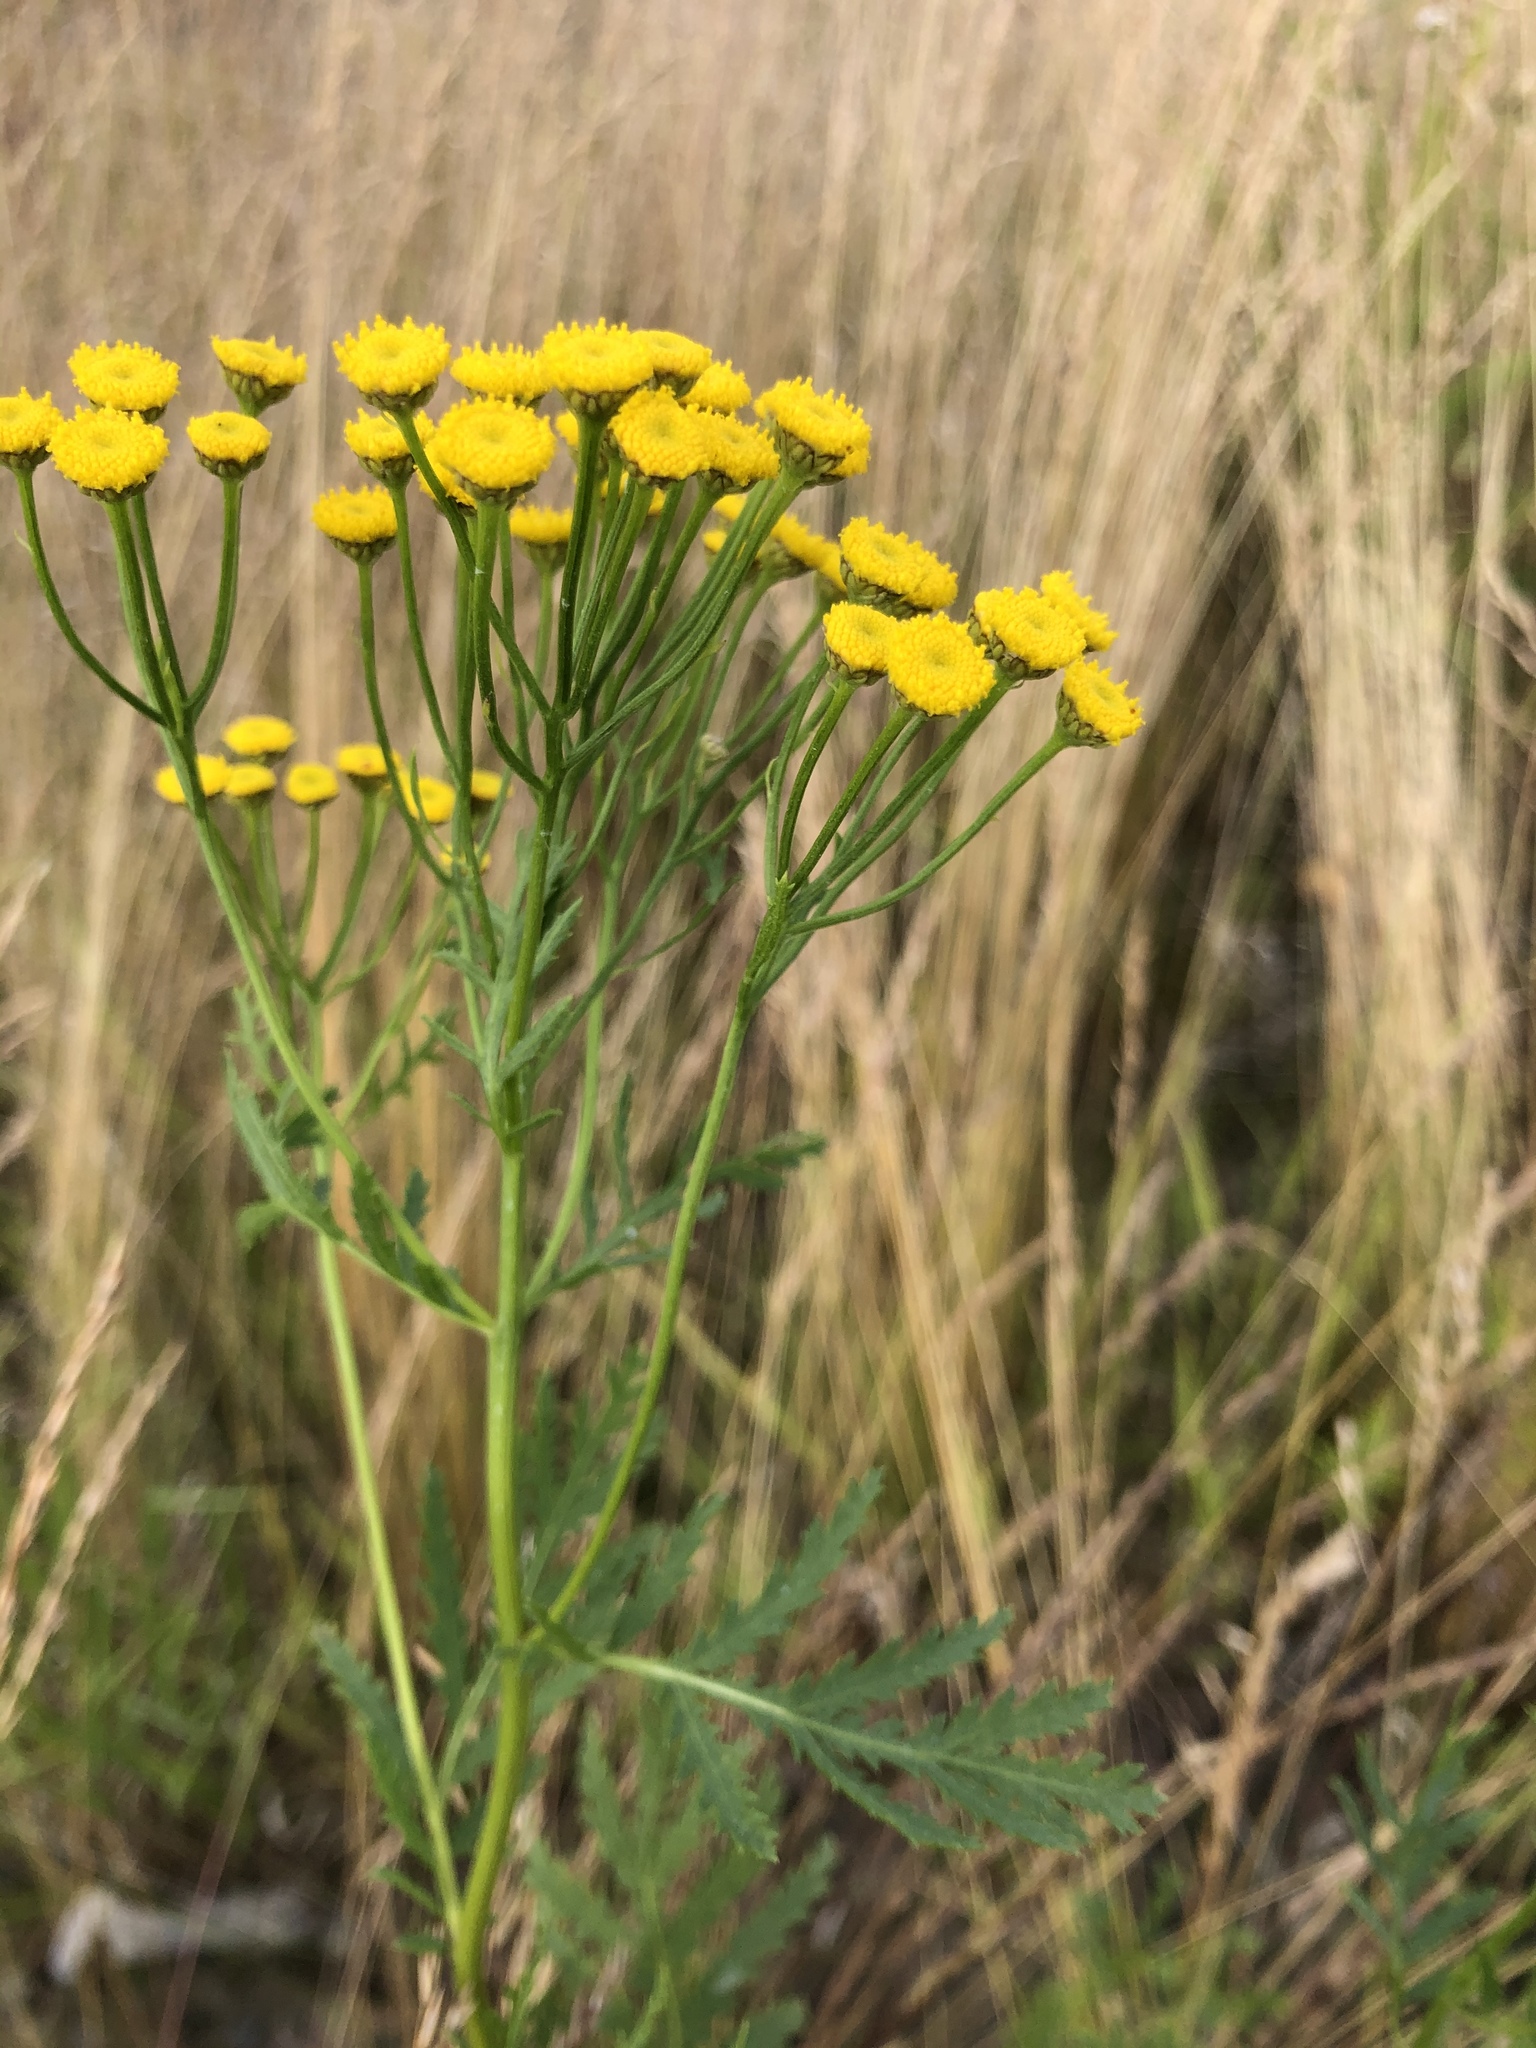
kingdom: Plantae
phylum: Tracheophyta
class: Magnoliopsida
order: Asterales
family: Asteraceae
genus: Tanacetum
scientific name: Tanacetum vulgare
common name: Common tansy
